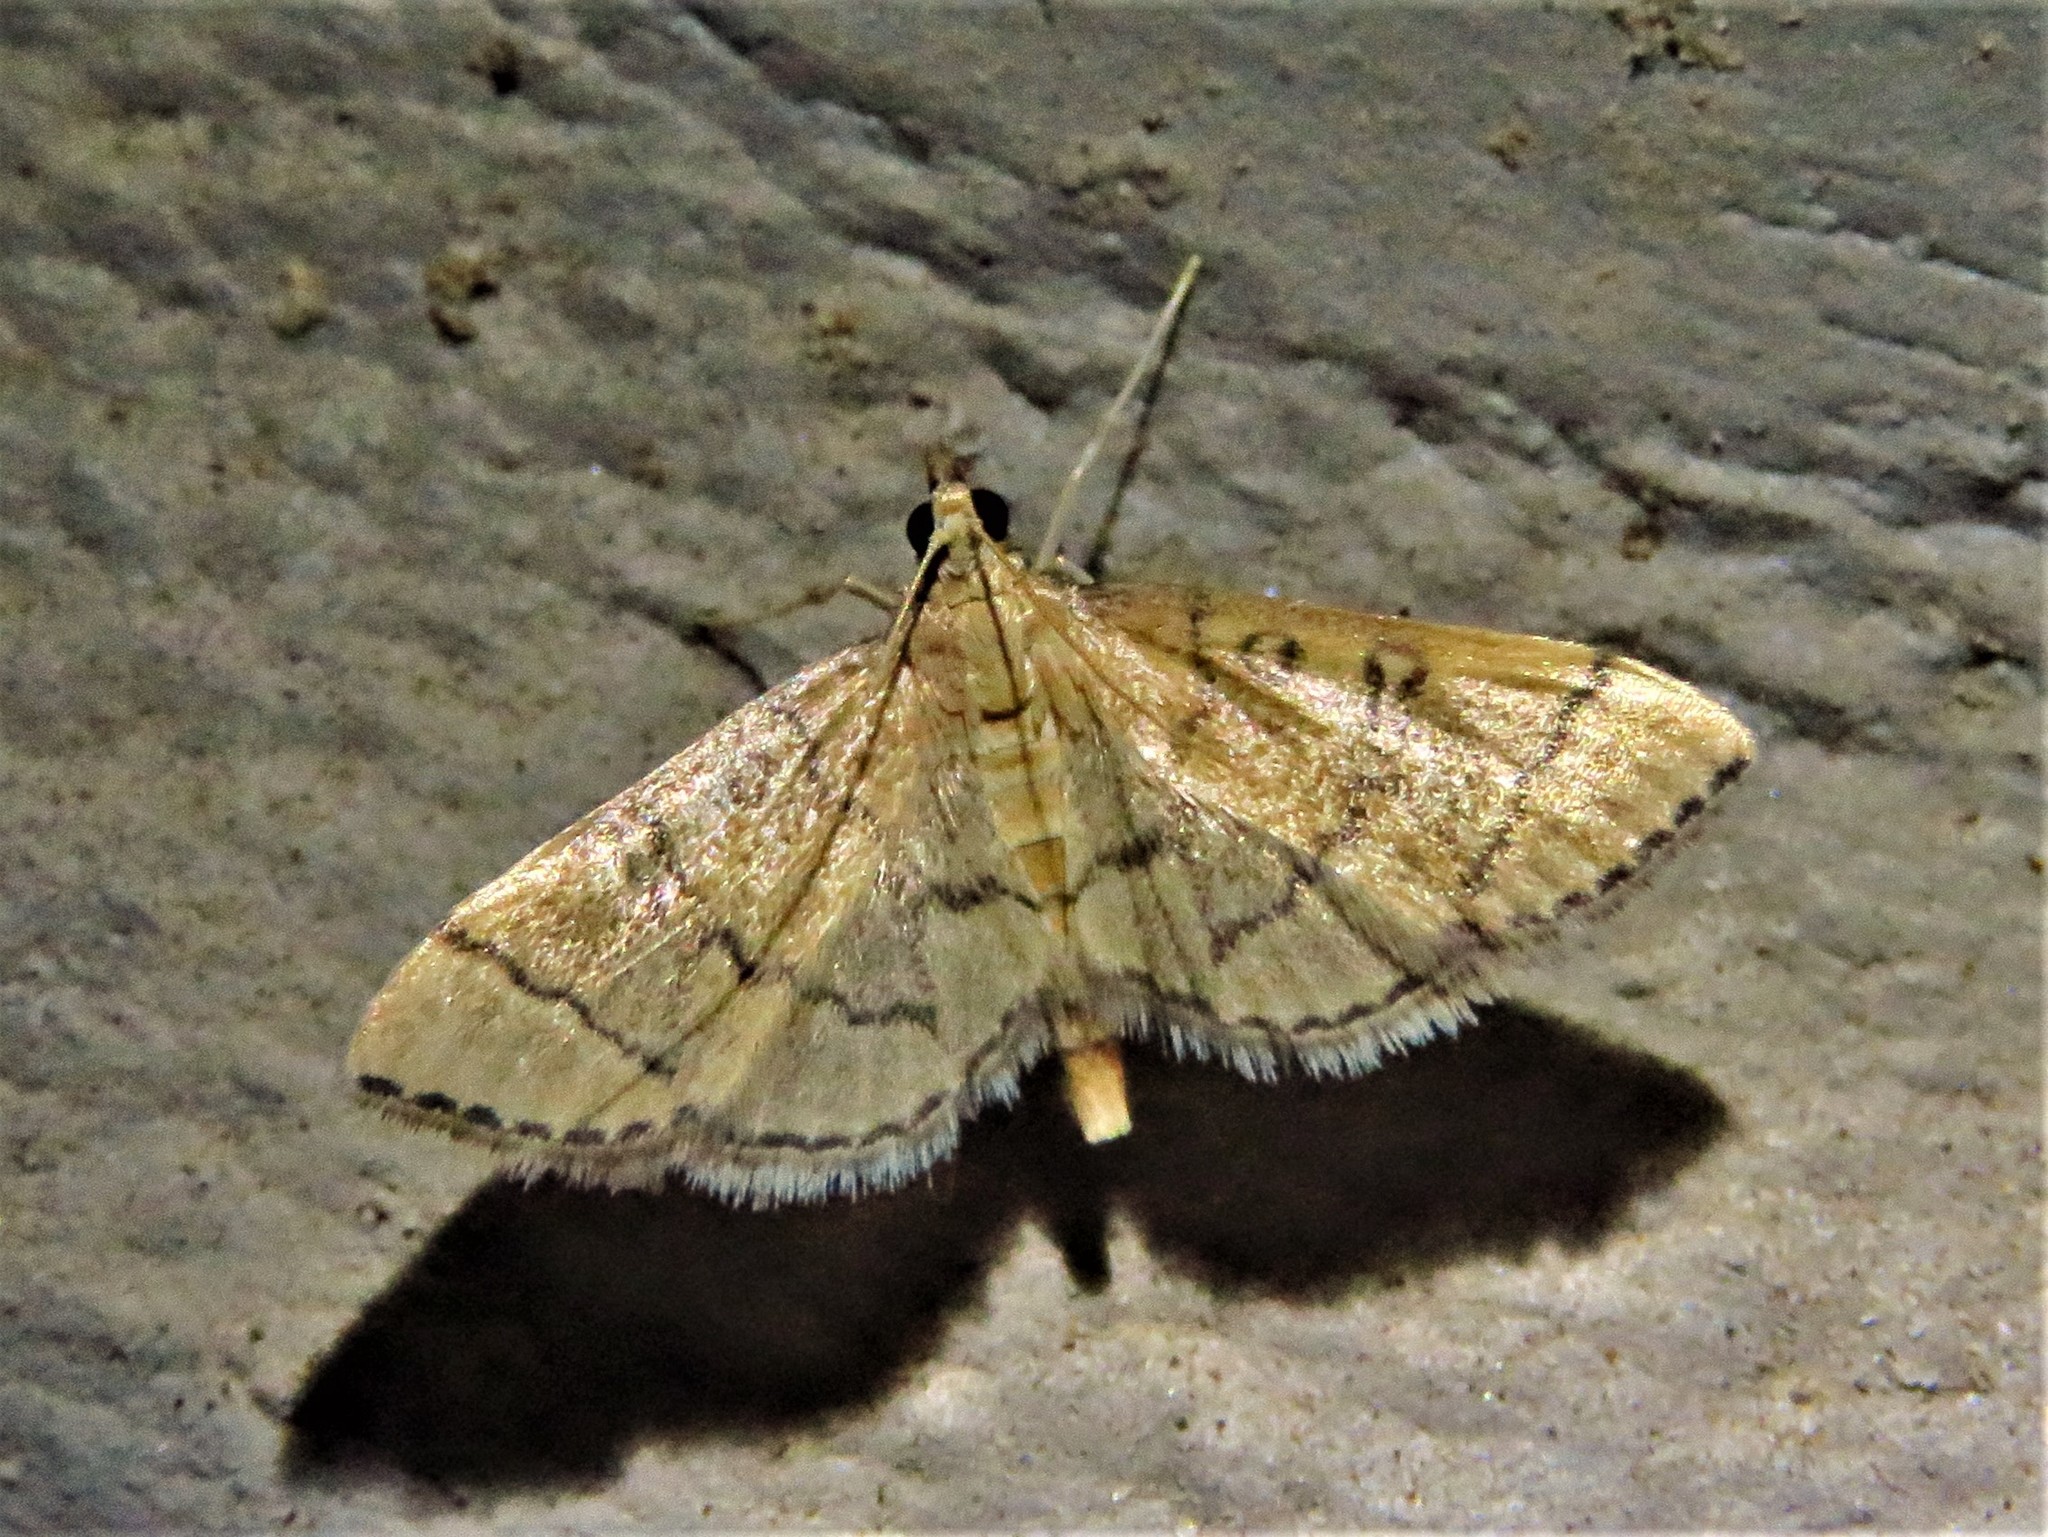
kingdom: Animalia
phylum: Arthropoda
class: Insecta
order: Lepidoptera
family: Crambidae
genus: Lamprosema
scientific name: Lamprosema Blepharomastix ranalis
